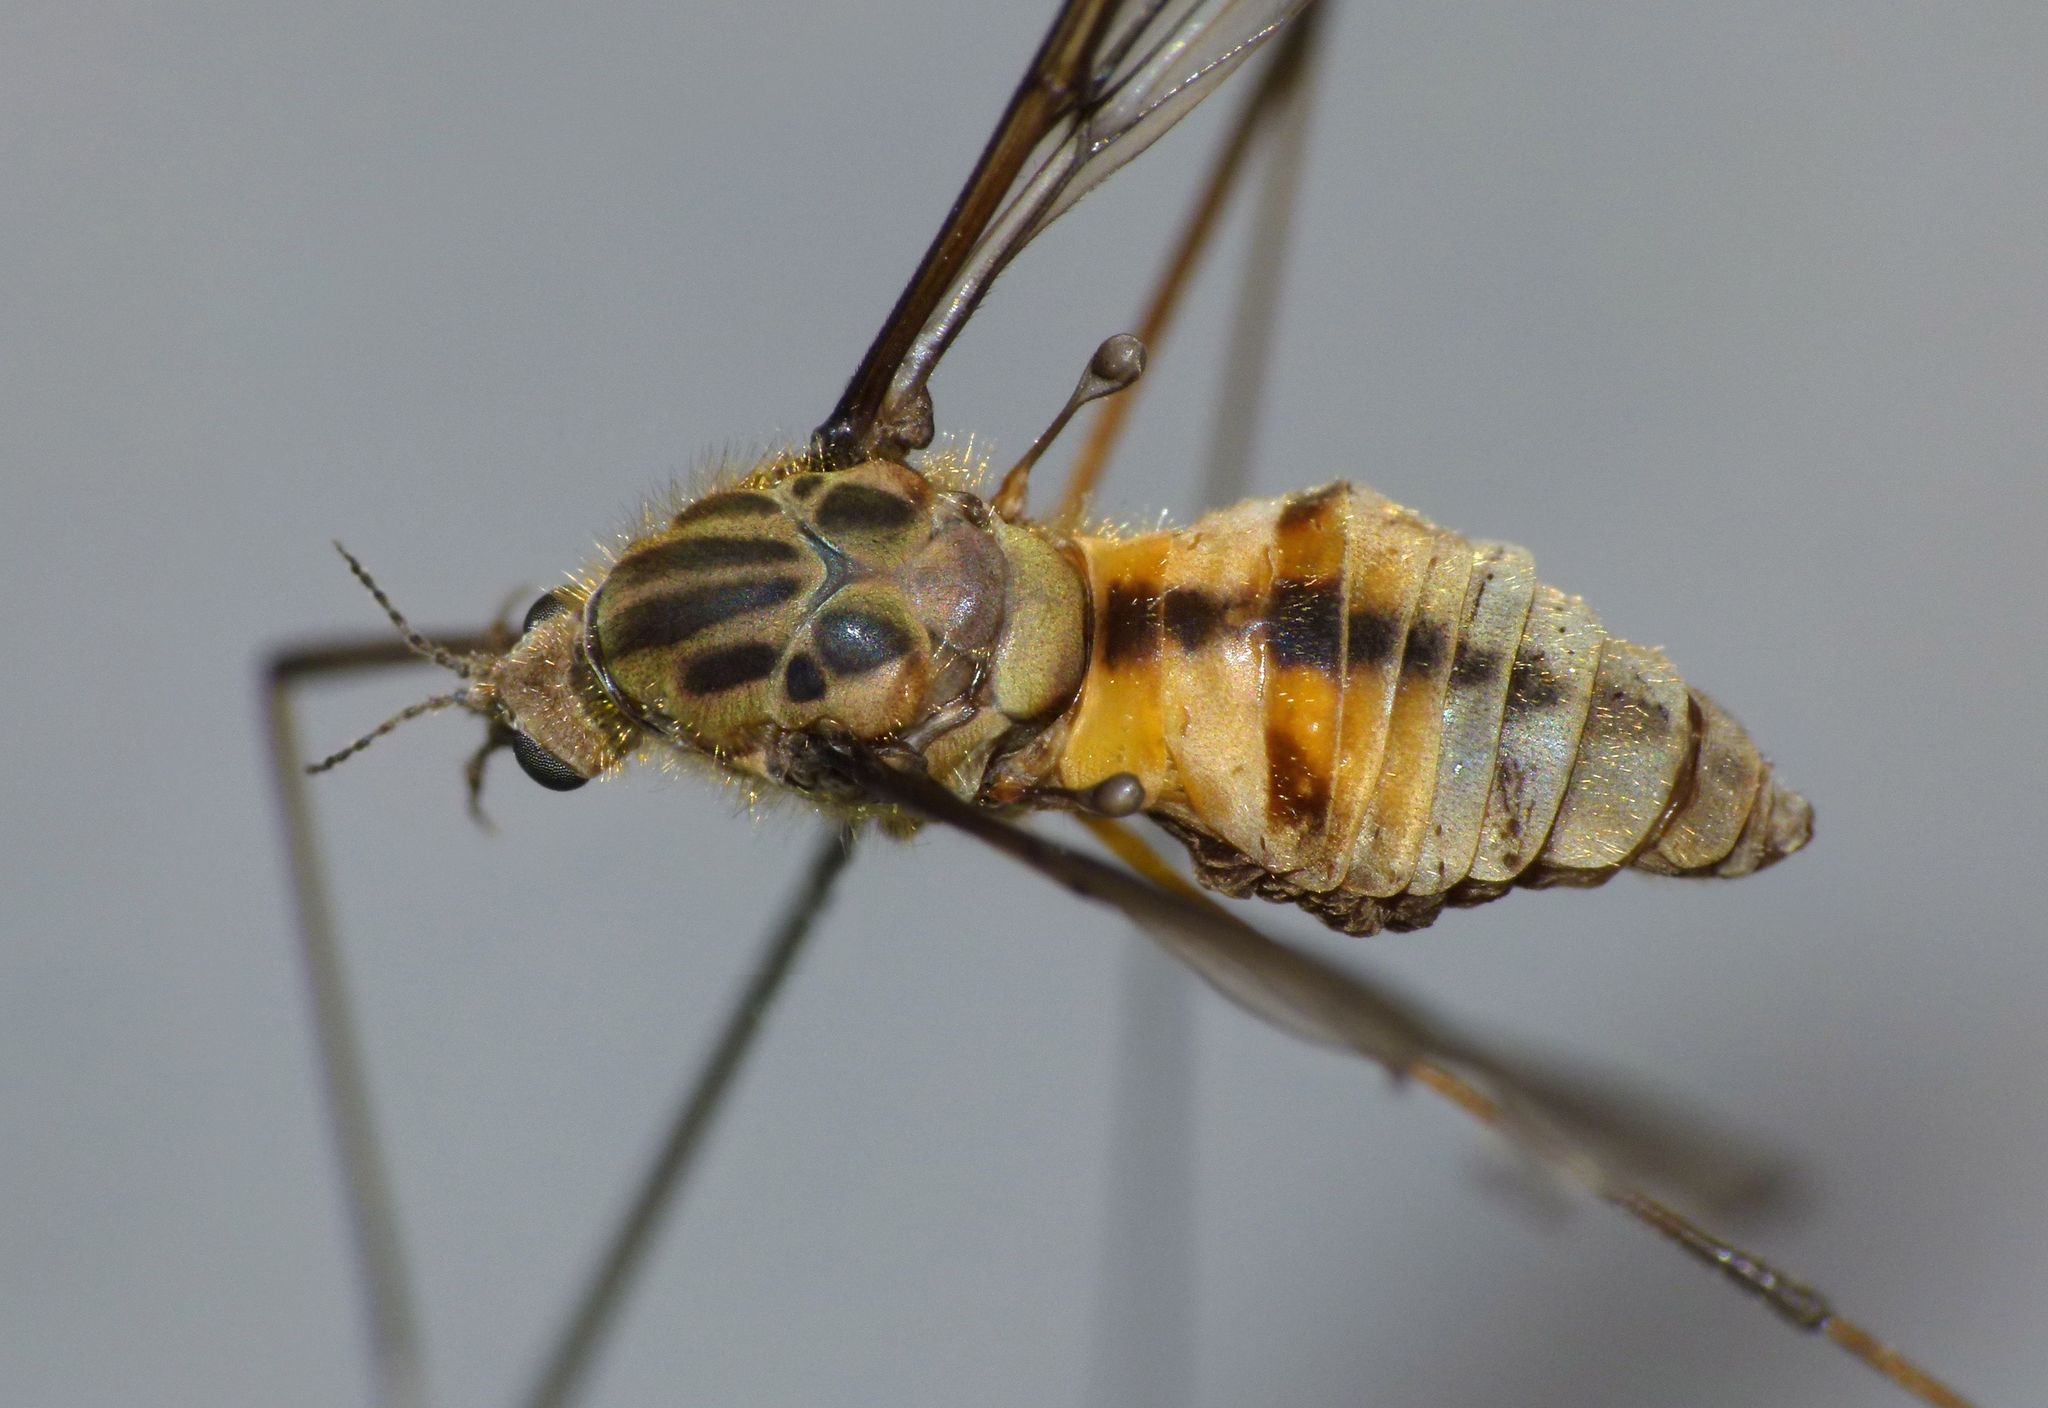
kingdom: Animalia
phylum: Arthropoda
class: Insecta
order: Diptera
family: Tipulidae
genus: Leptotarsus
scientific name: Leptotarsus vulpinus
